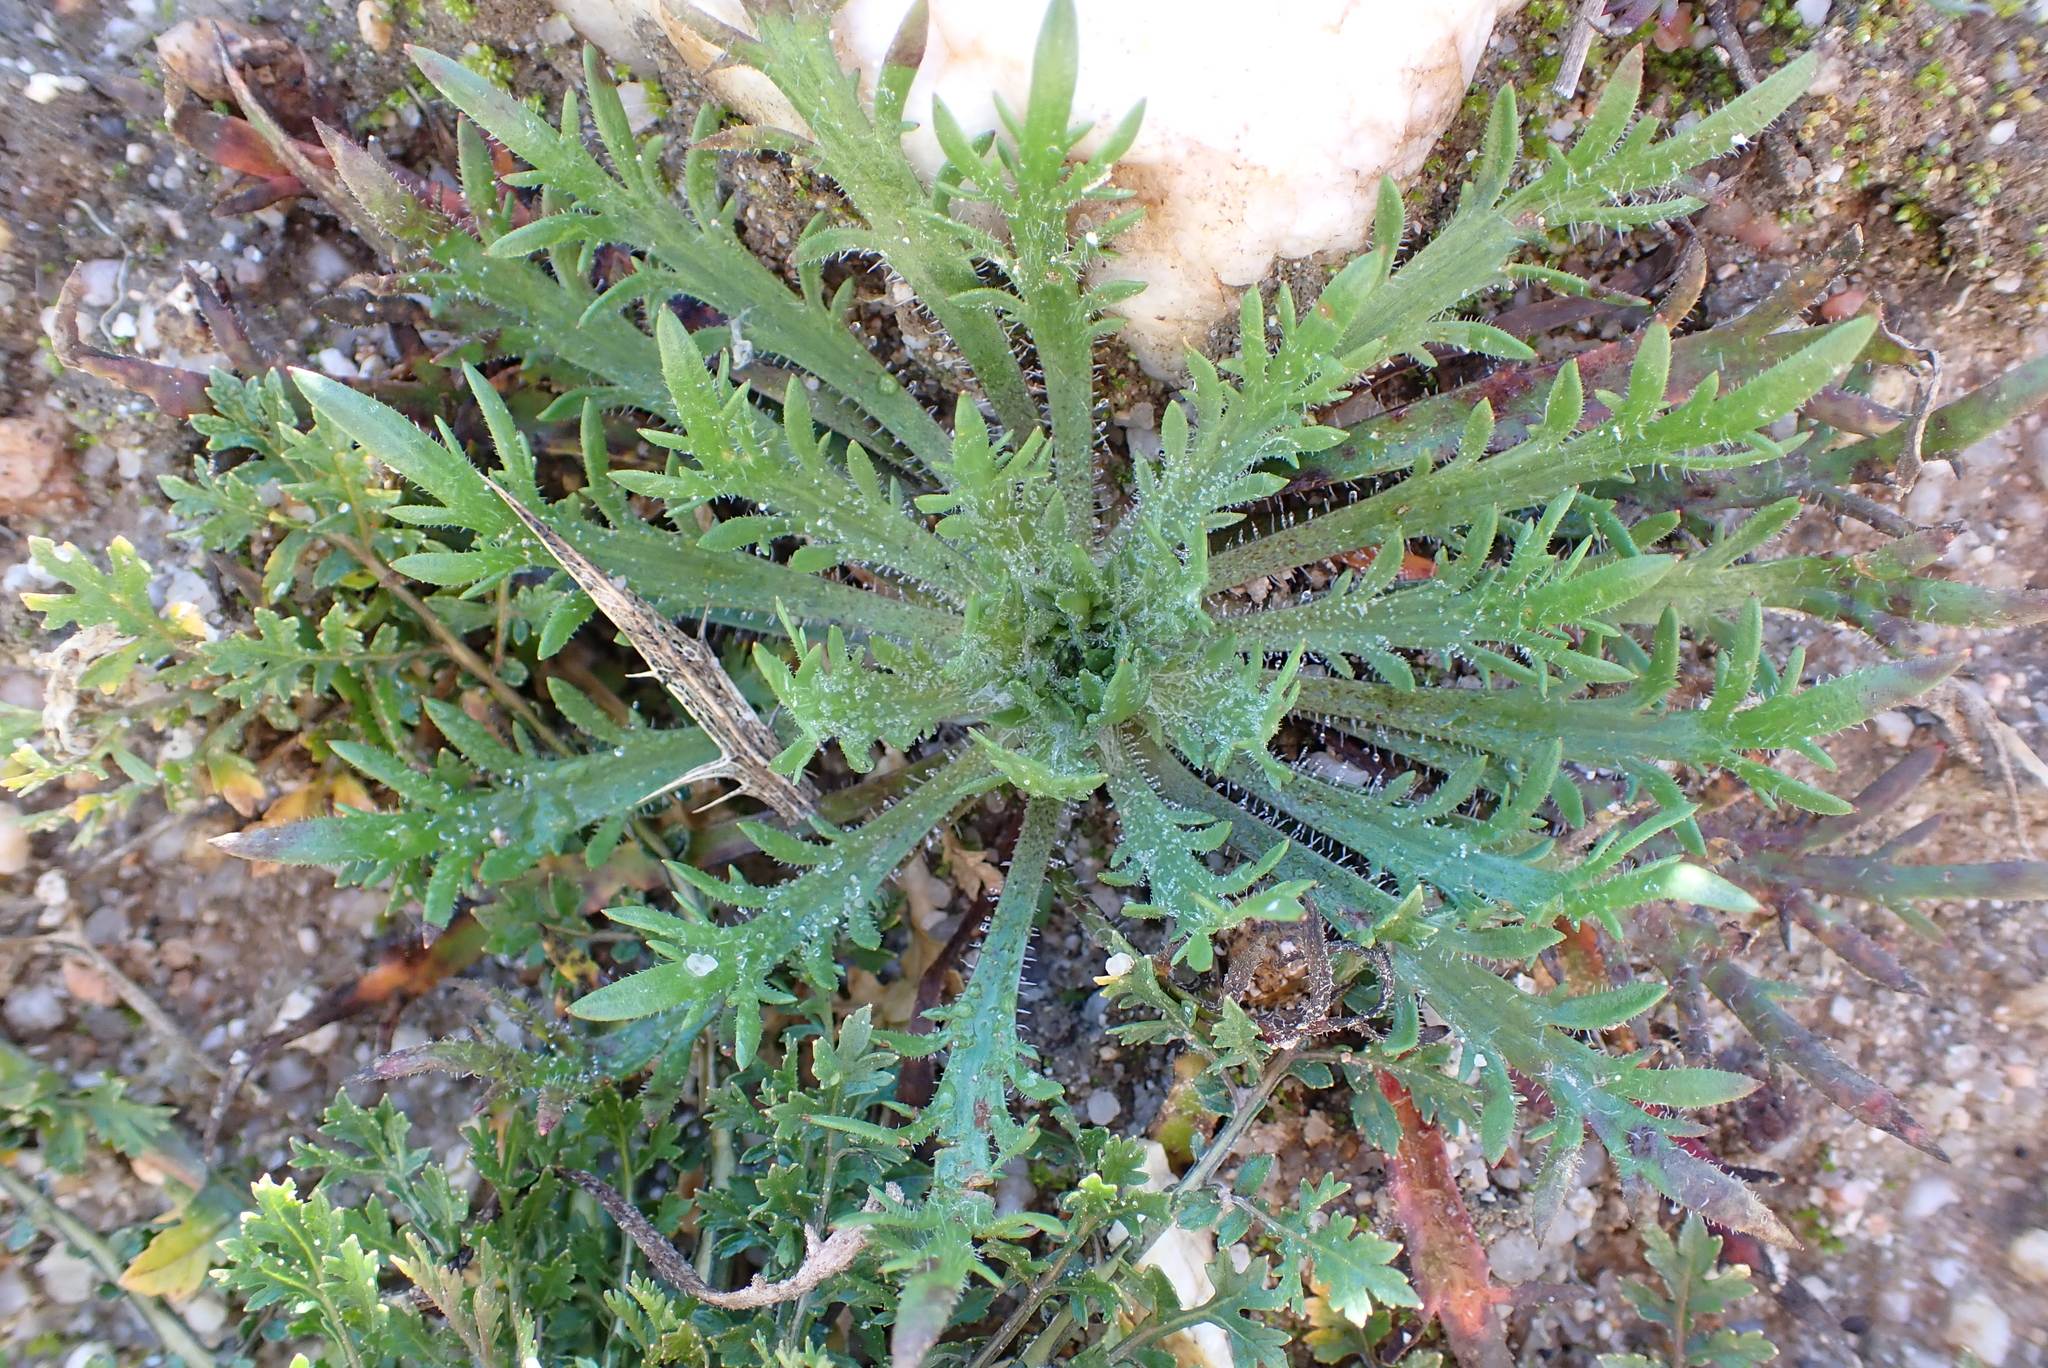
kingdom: Plantae
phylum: Tracheophyta
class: Magnoliopsida
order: Lamiales
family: Plantaginaceae
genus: Plantago
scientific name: Plantago coronopus
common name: Buck's-horn plantain
